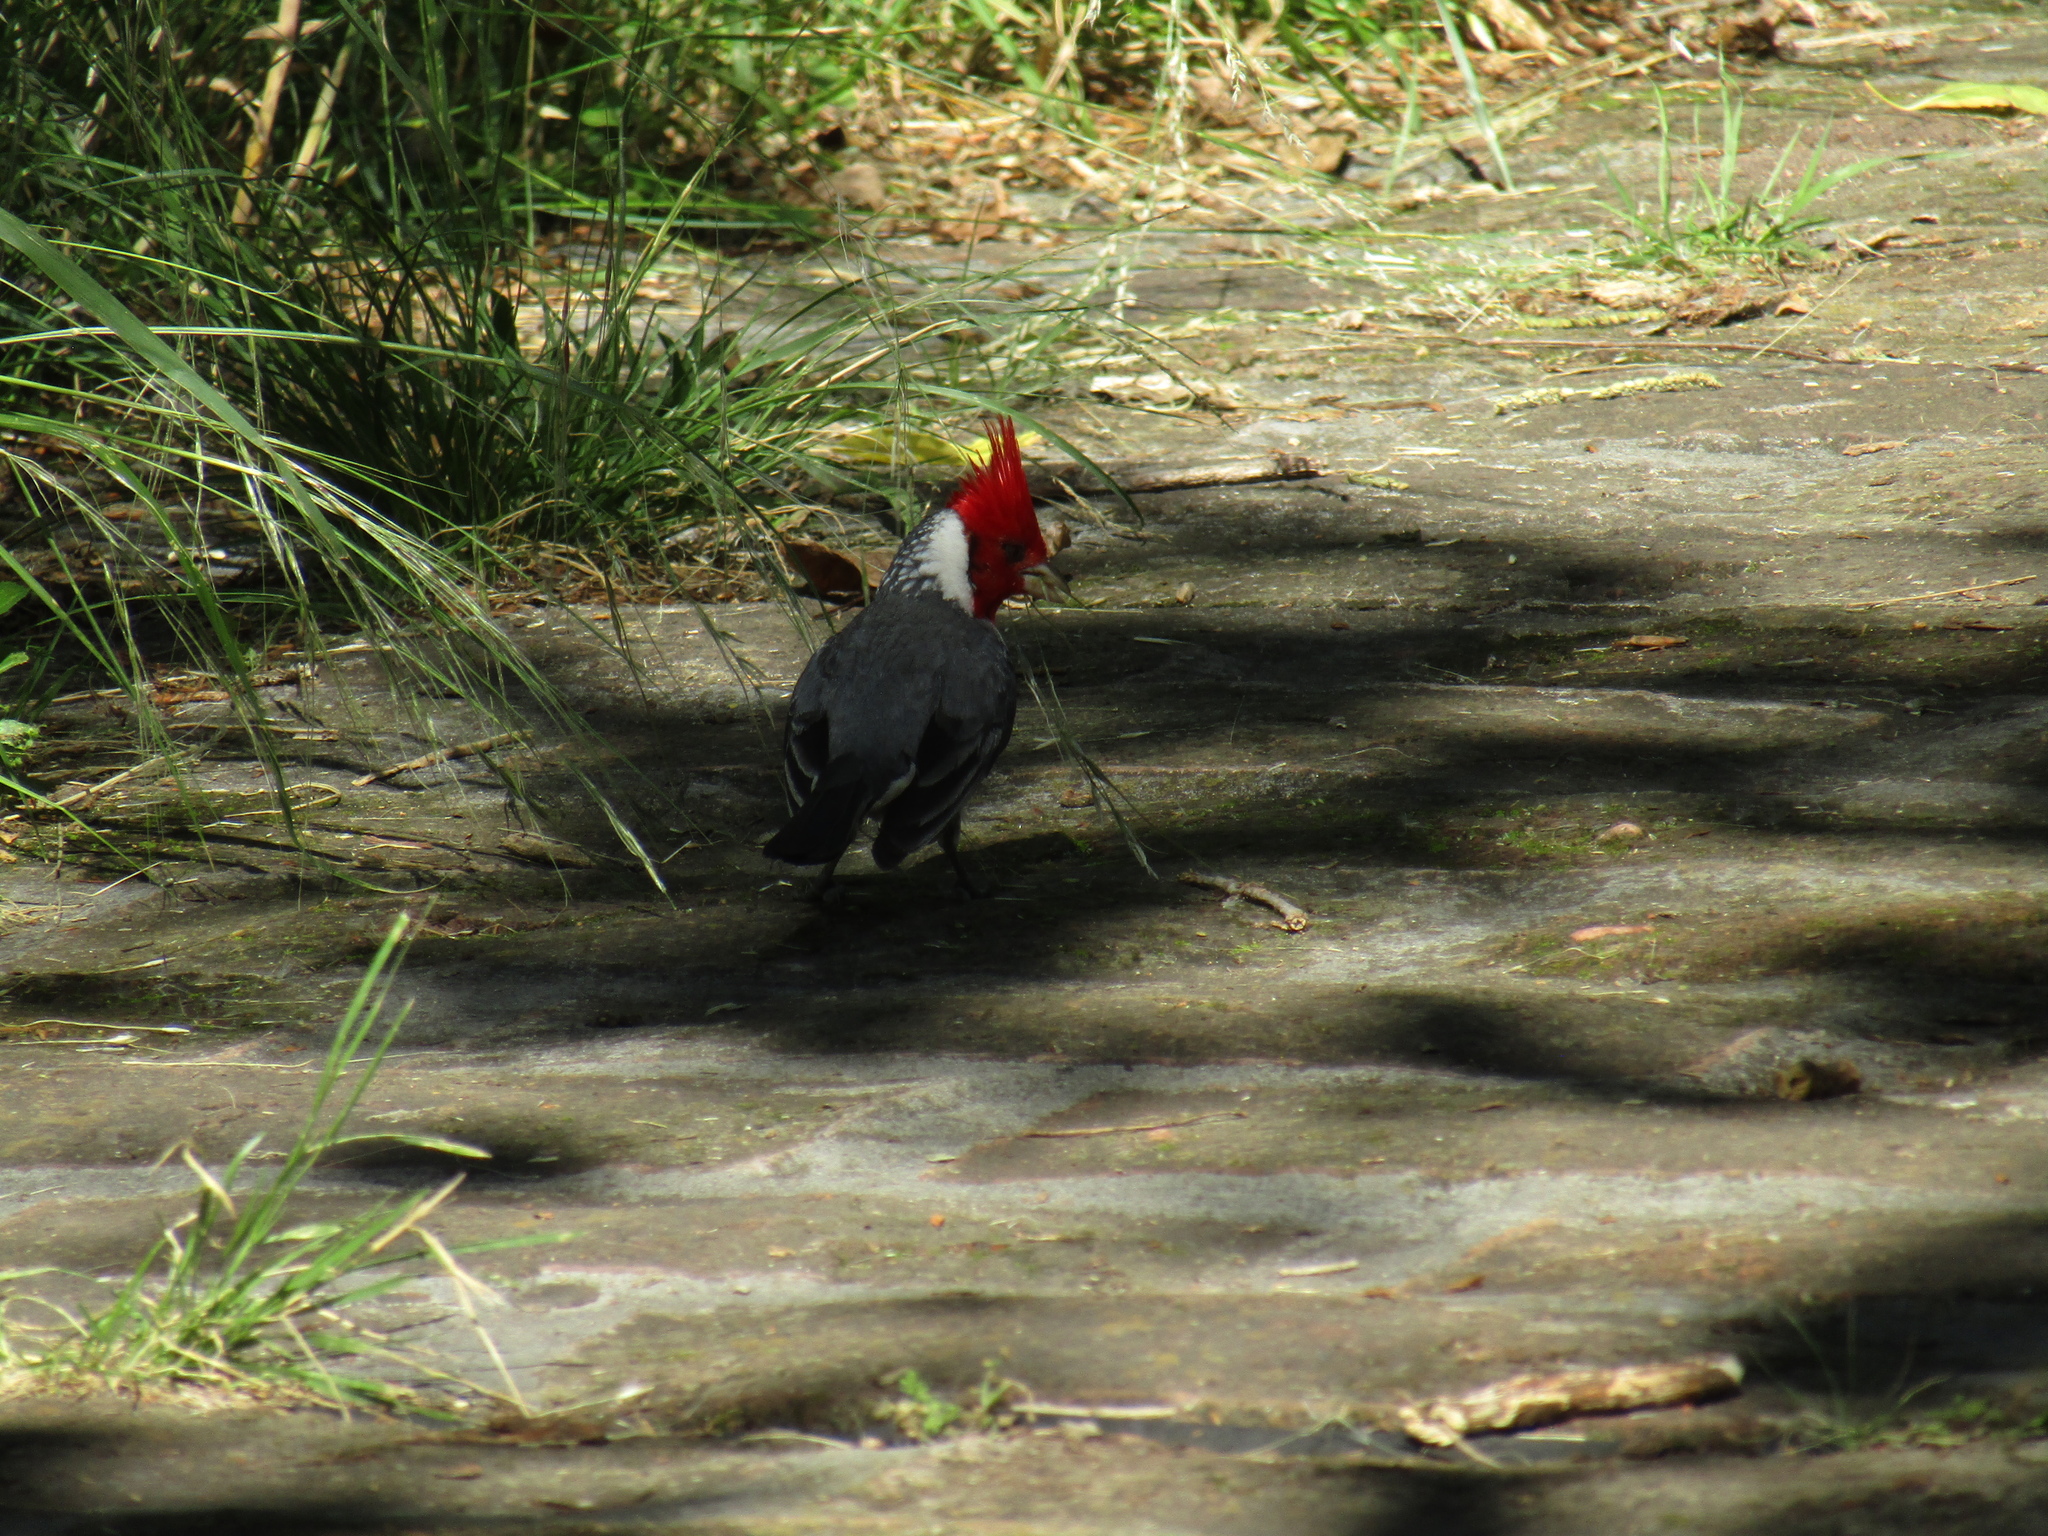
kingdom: Animalia
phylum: Chordata
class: Aves
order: Passeriformes
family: Thraupidae
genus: Paroaria
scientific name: Paroaria coronata
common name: Red-crested cardinal
